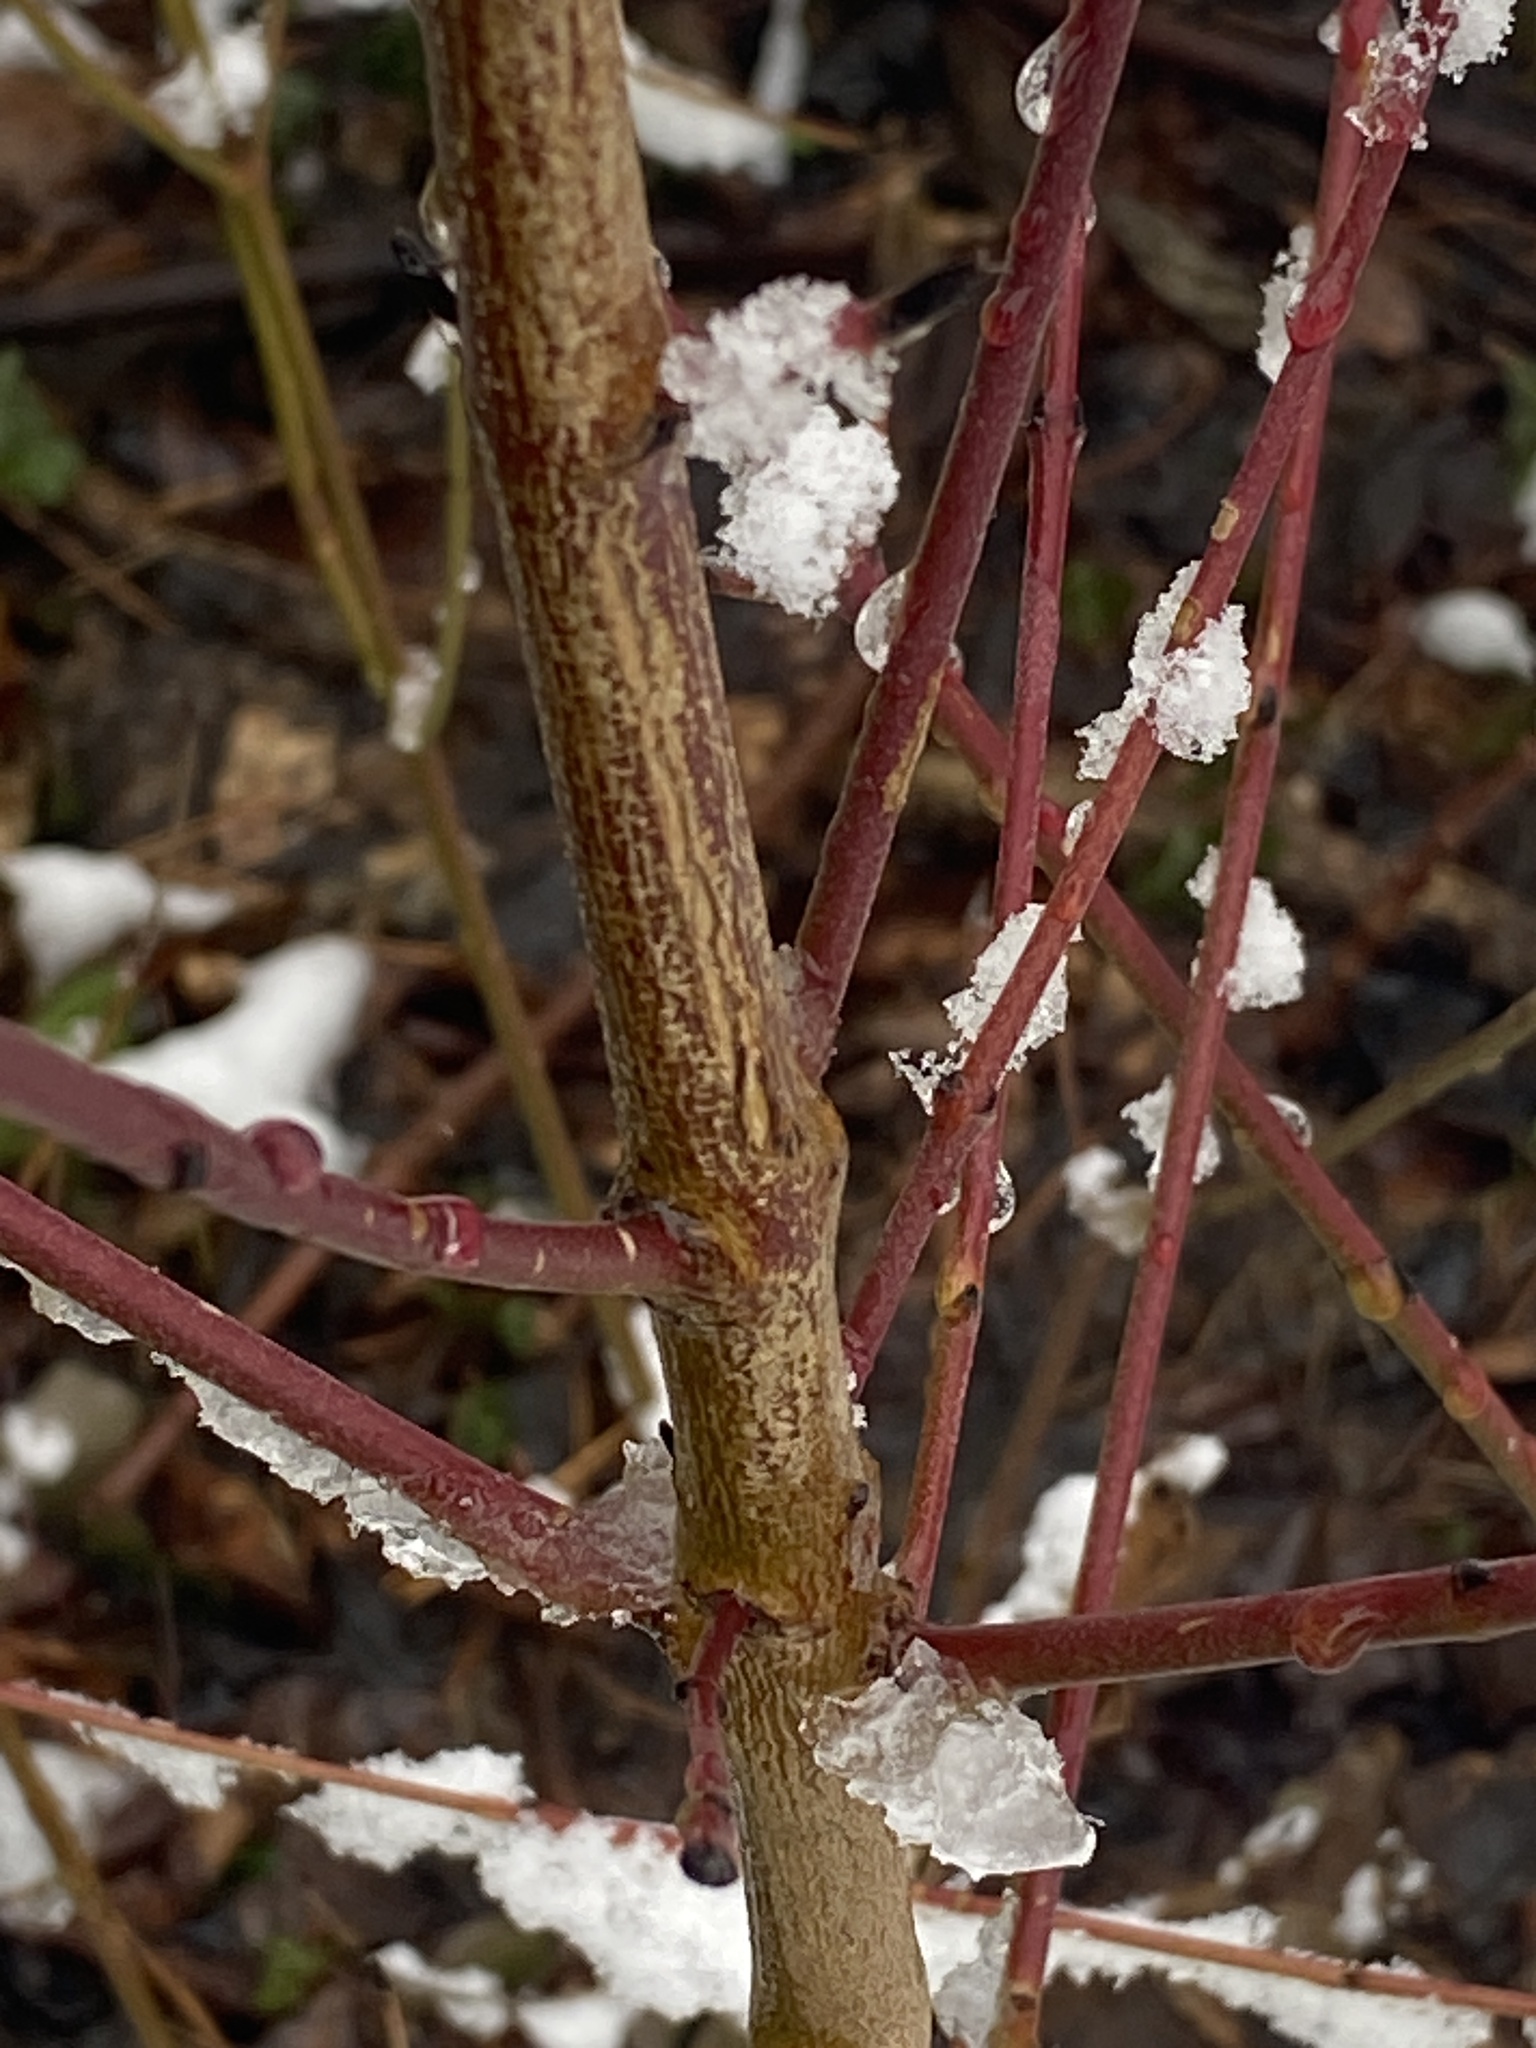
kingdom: Plantae
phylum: Tracheophyta
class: Magnoliopsida
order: Cornales
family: Cornaceae
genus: Cornus
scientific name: Cornus amomum
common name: Silky dogwood
